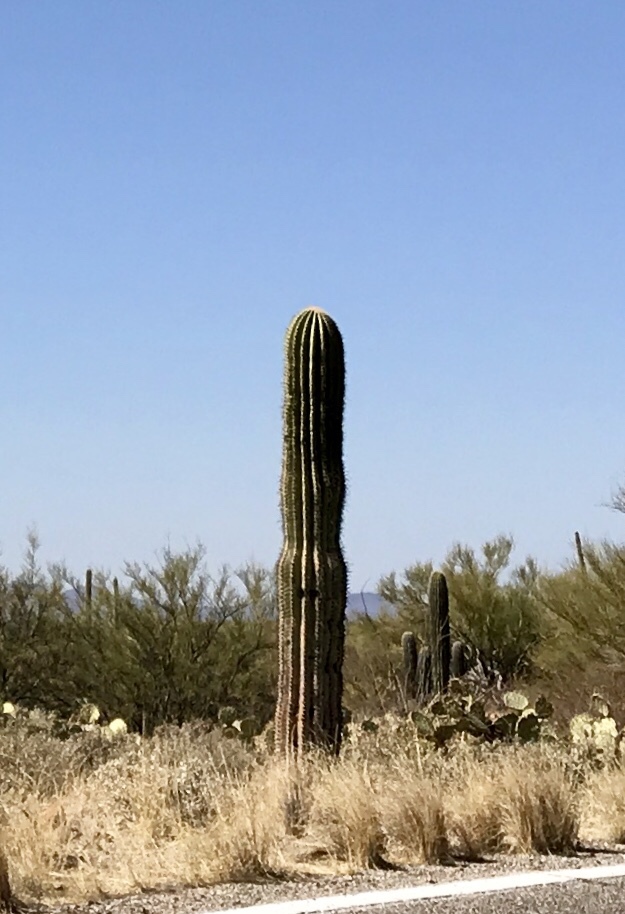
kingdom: Plantae
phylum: Tracheophyta
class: Magnoliopsida
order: Caryophyllales
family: Cactaceae
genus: Carnegiea
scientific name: Carnegiea gigantea
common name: Saguaro
